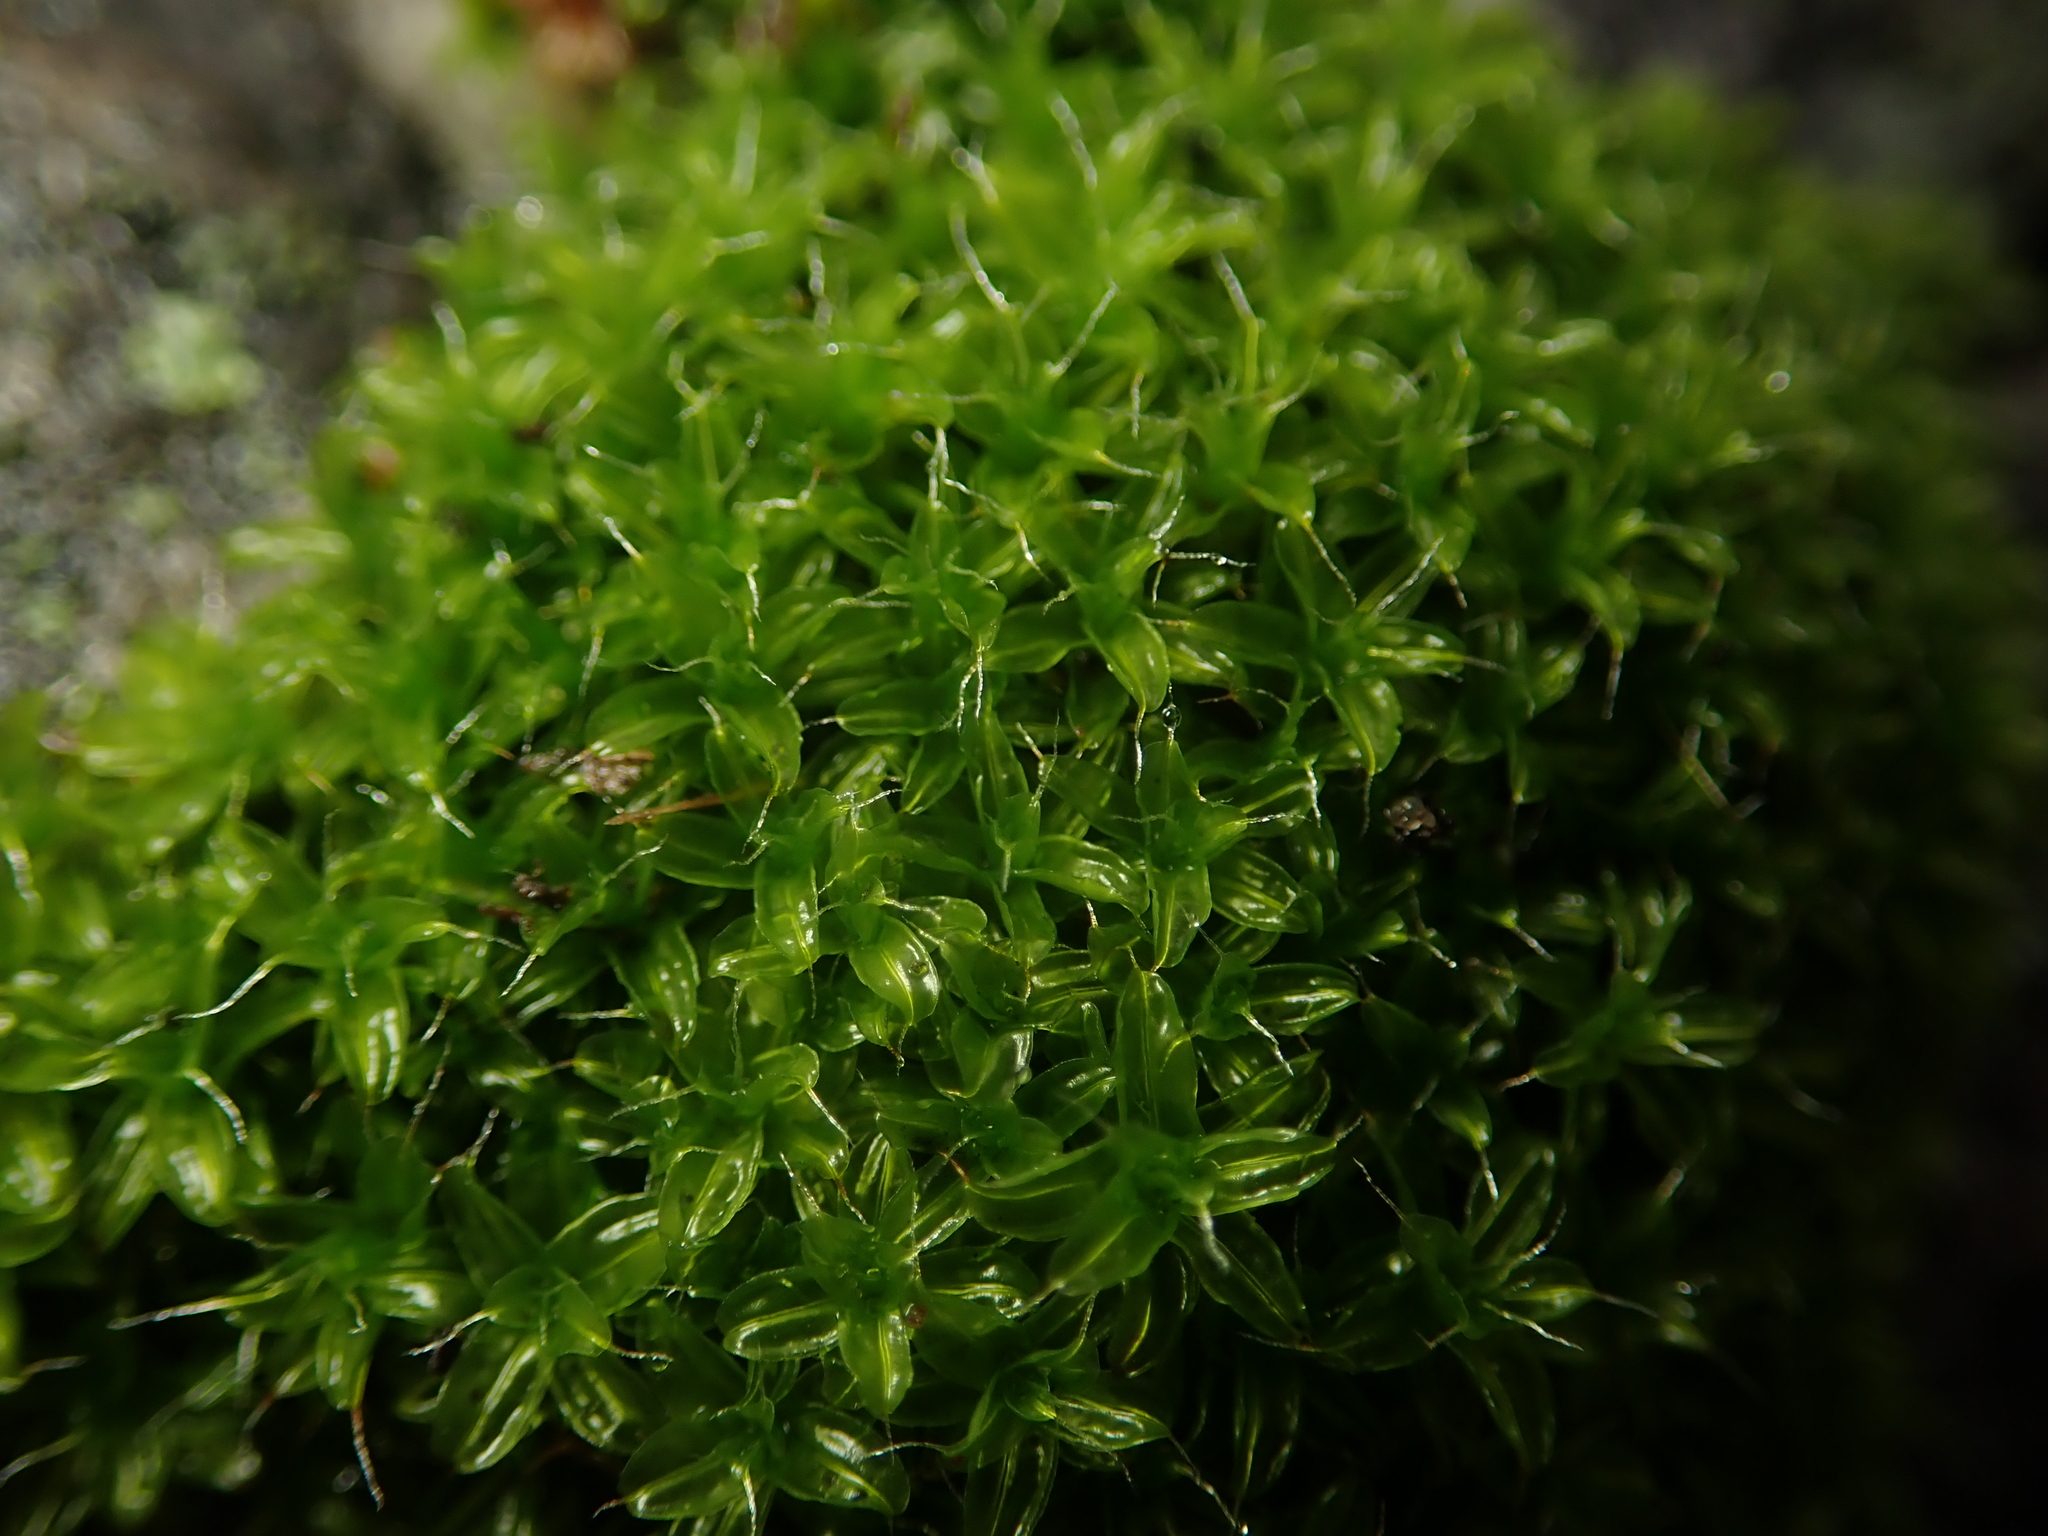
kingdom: Plantae
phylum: Bryophyta
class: Bryopsida
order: Pottiales
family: Pottiaceae
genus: Syntrichia
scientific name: Syntrichia ruralis
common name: Sidewalk screw moss
